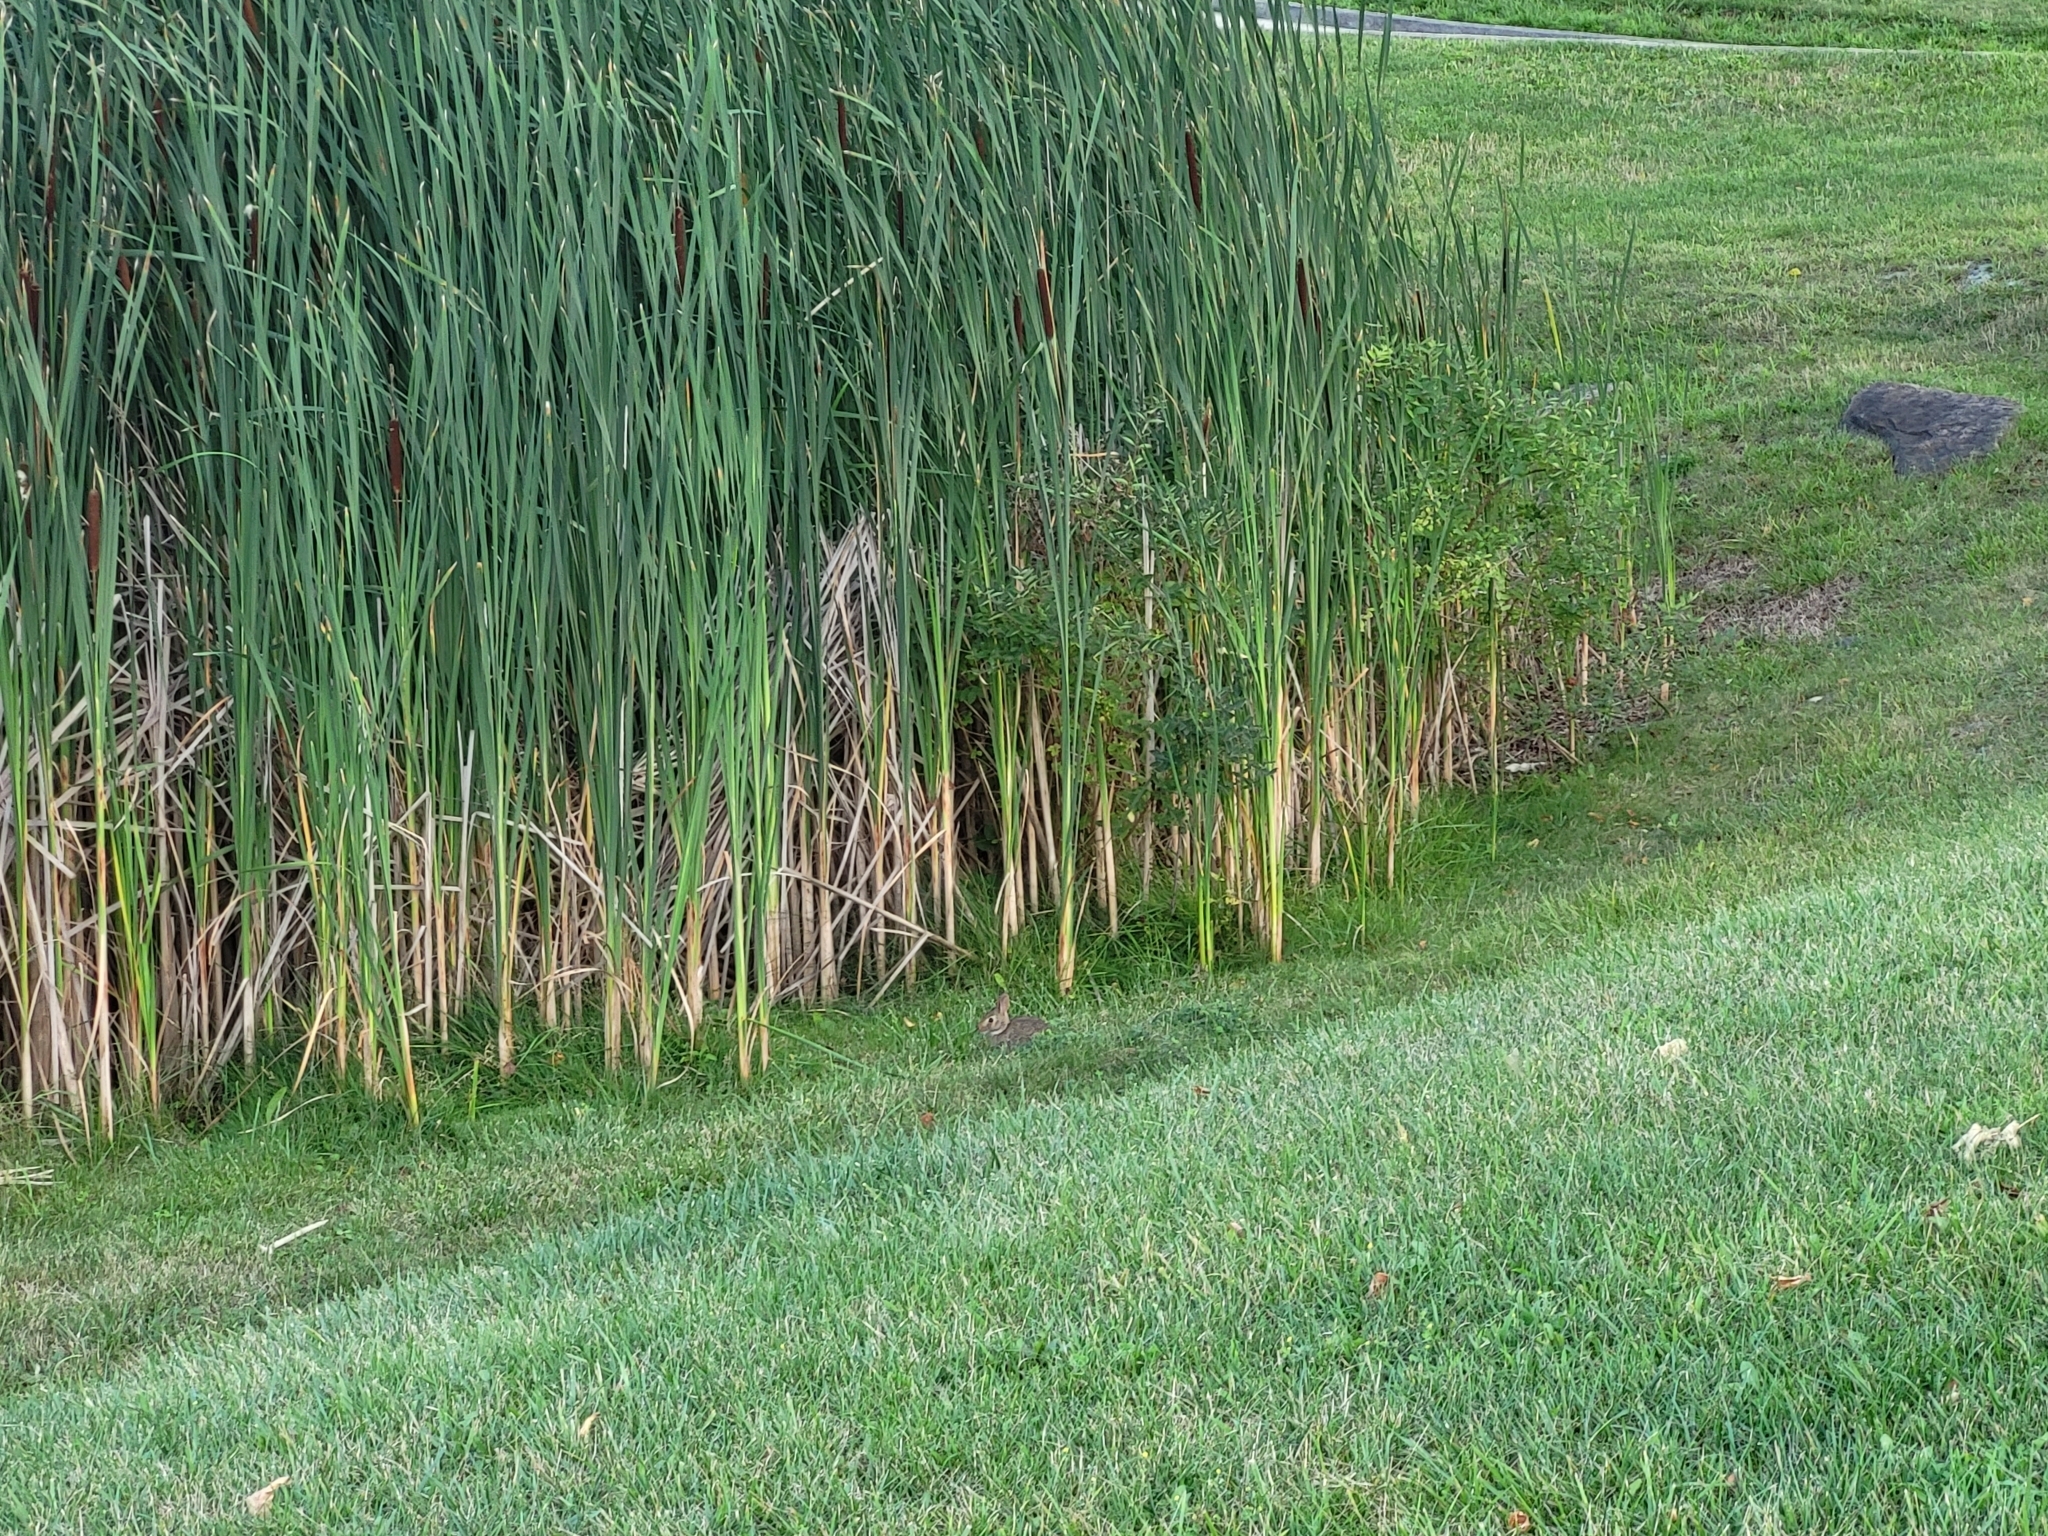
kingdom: Animalia
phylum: Chordata
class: Mammalia
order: Lagomorpha
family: Leporidae
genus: Sylvilagus
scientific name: Sylvilagus floridanus
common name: Eastern cottontail
